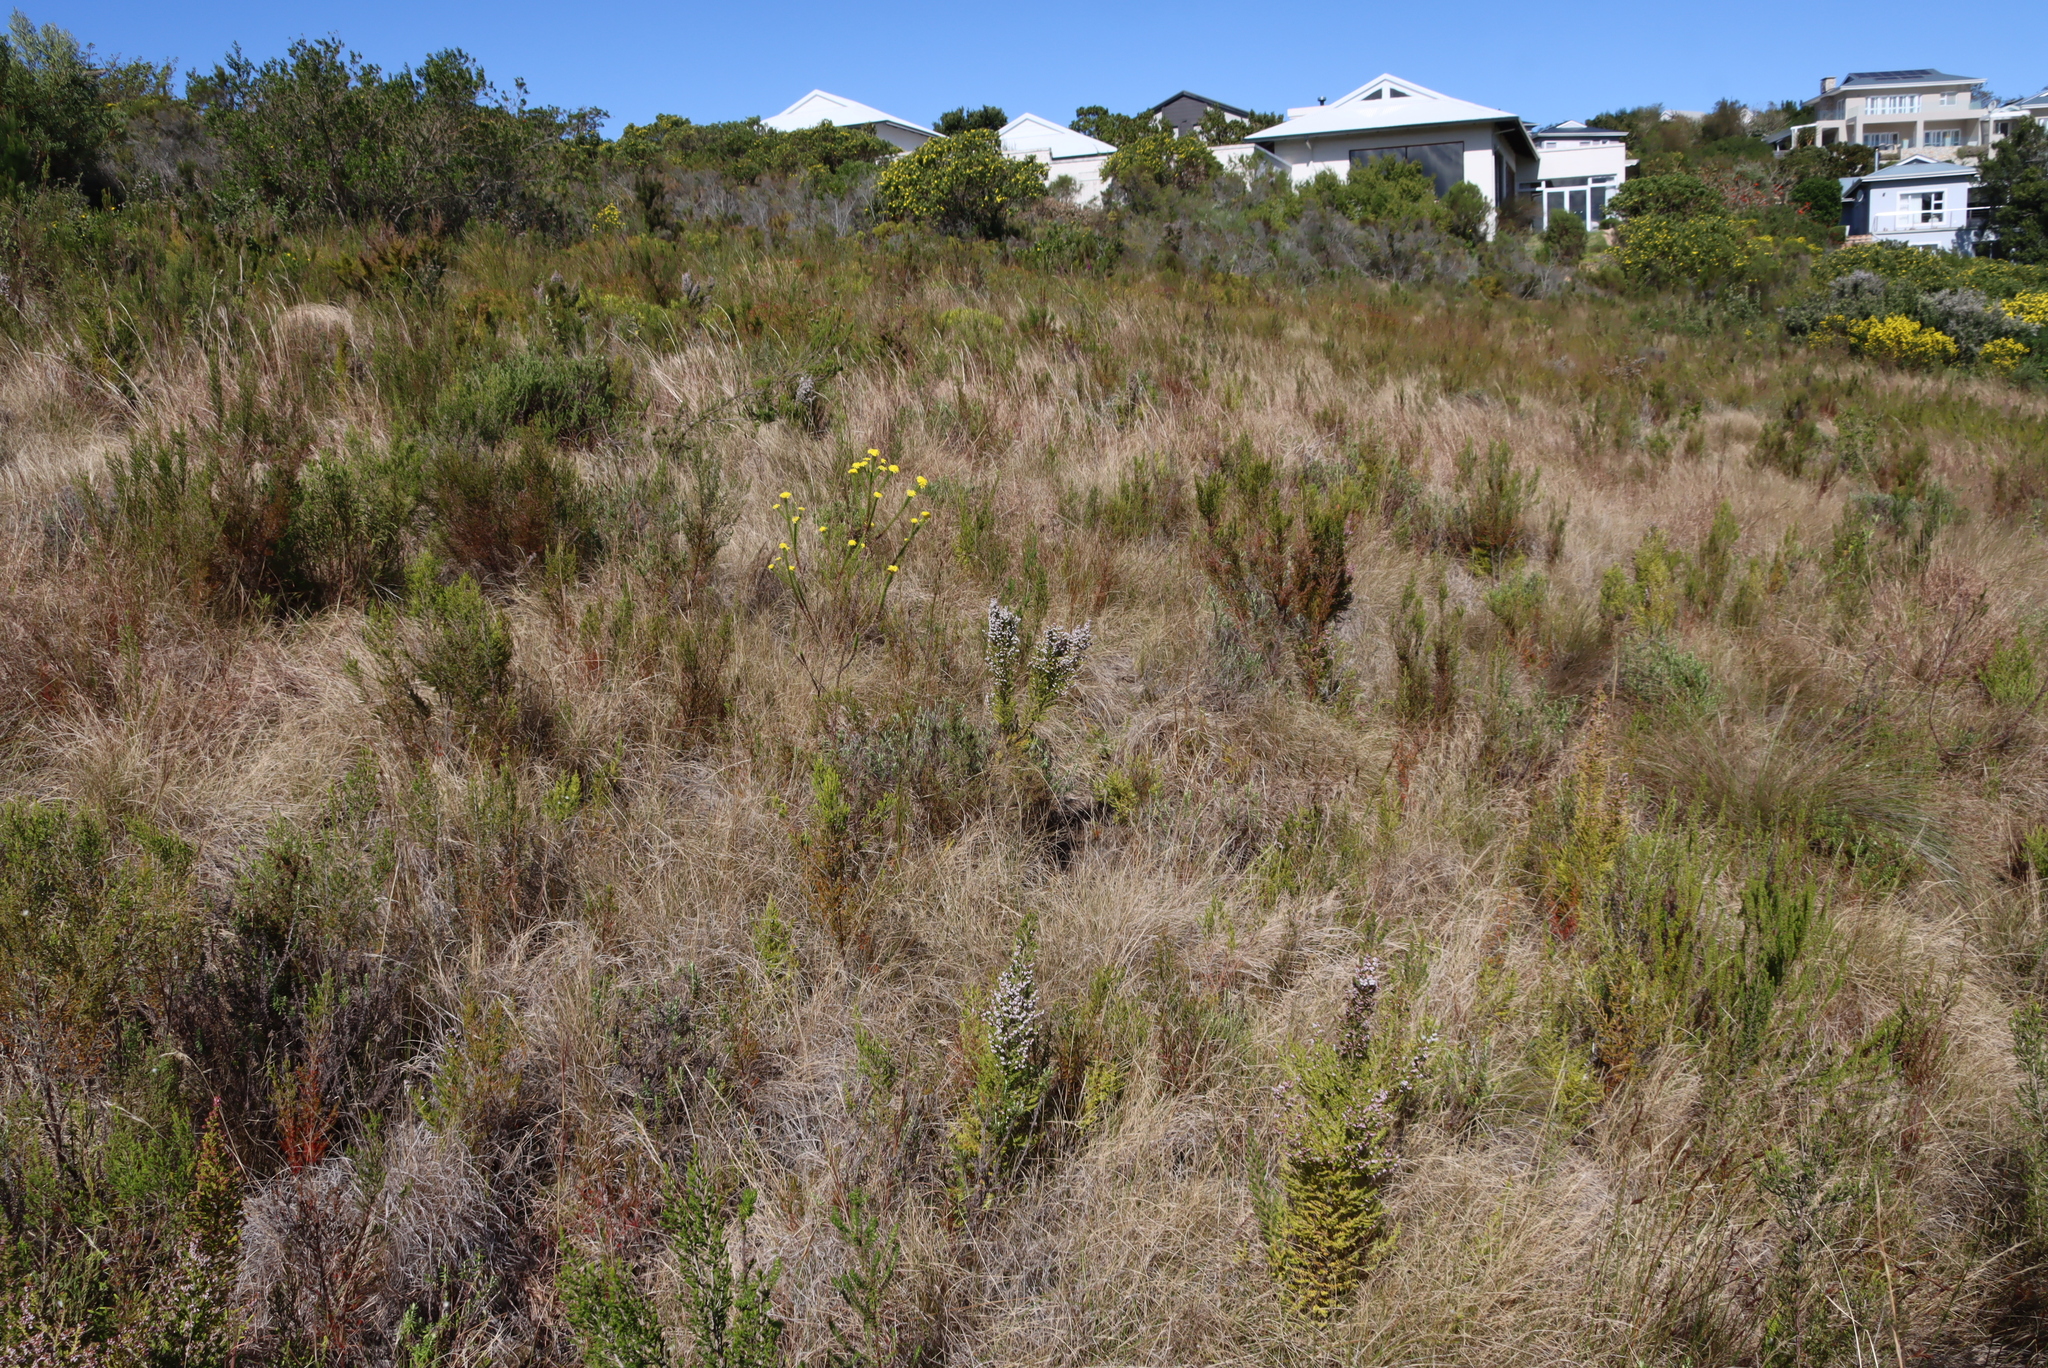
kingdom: Plantae
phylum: Tracheophyta
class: Liliopsida
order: Poales
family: Poaceae
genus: Themeda
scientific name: Themeda triandra
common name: Kangaroo grass
